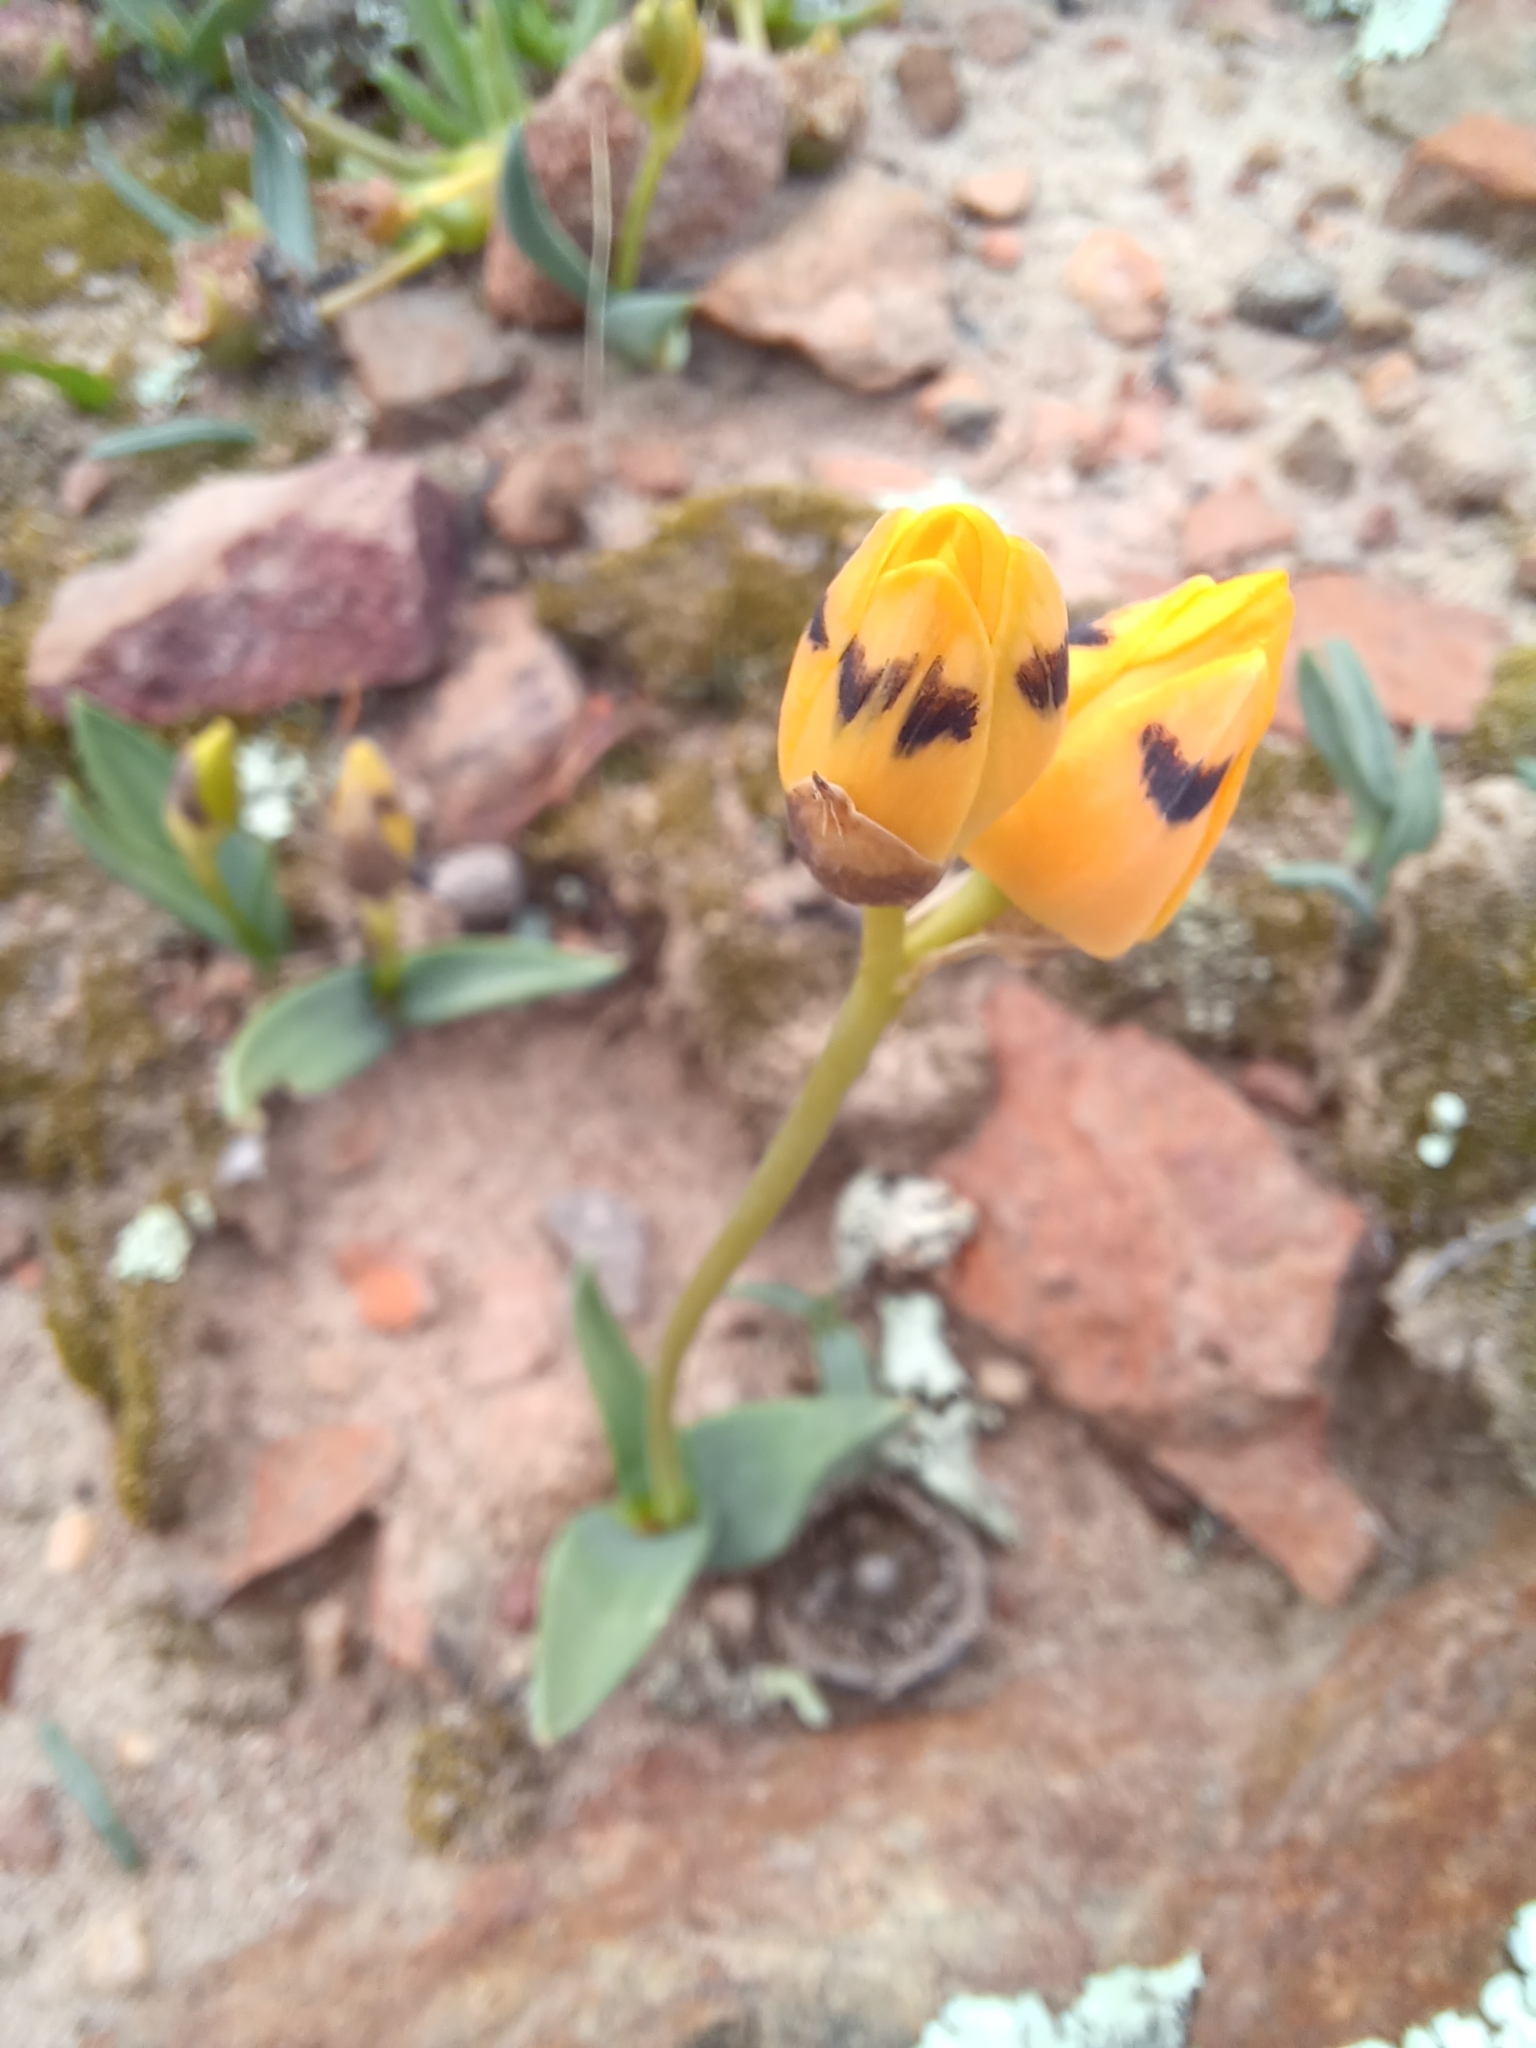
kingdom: Plantae
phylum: Tracheophyta
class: Liliopsida
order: Asparagales
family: Asparagaceae
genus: Ornithogalum
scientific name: Ornithogalum maculatum
